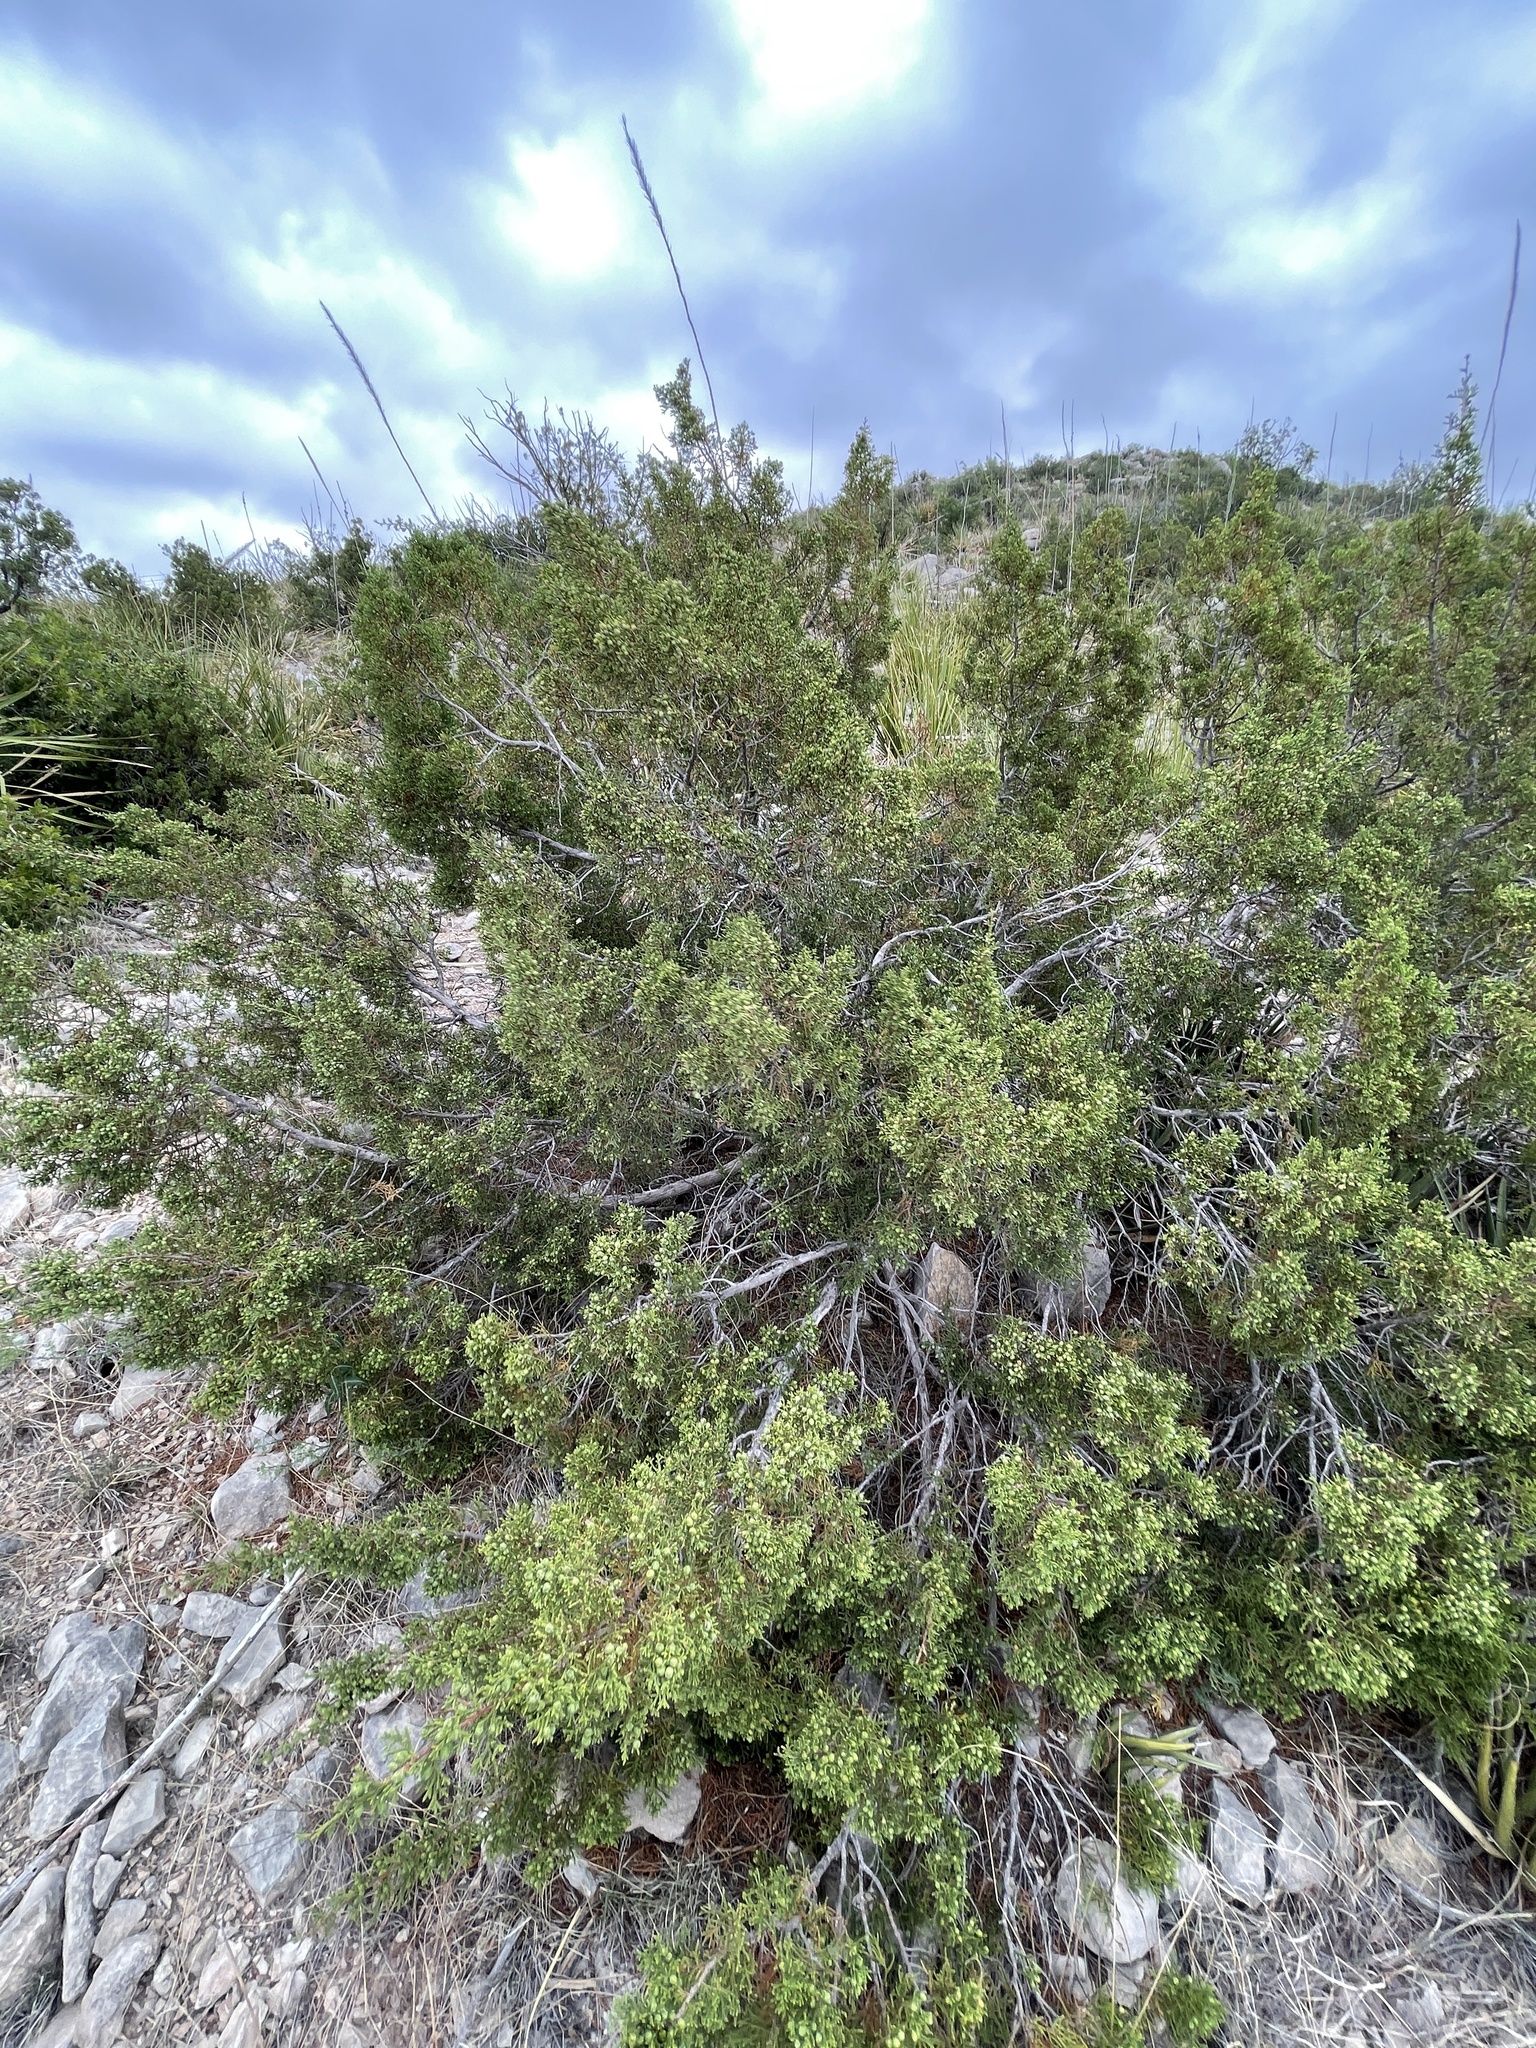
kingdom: Plantae
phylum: Tracheophyta
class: Pinopsida
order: Pinales
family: Cupressaceae
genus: Juniperus
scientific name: Juniperus pinchotii
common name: Pinchot juniper
